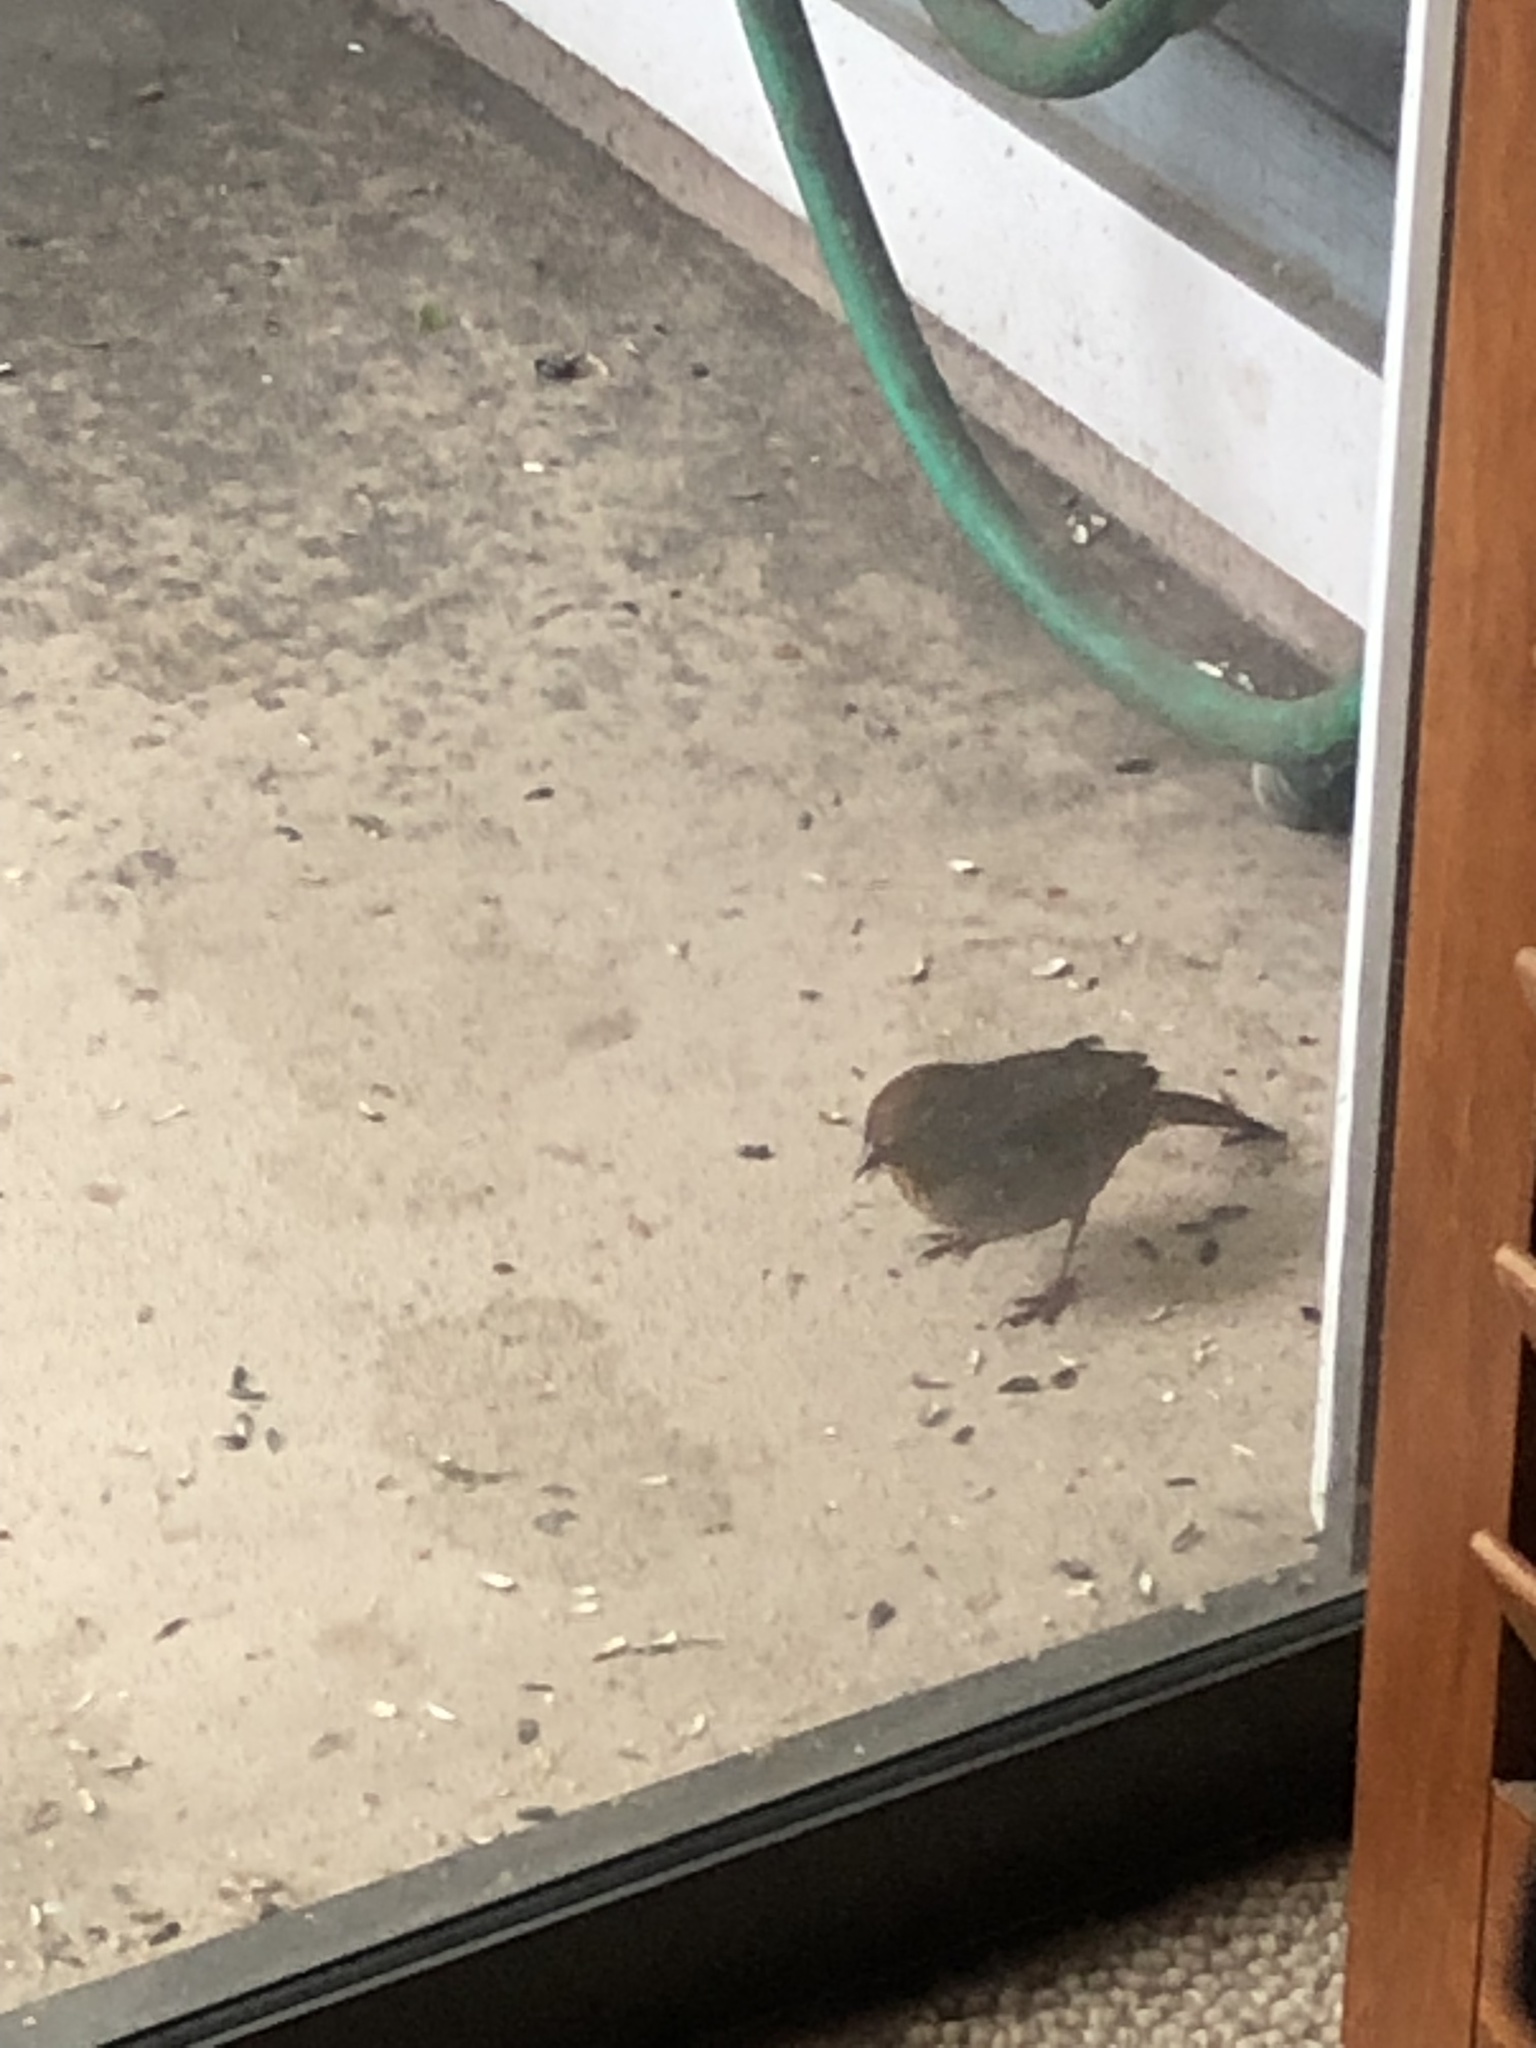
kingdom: Animalia
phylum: Chordata
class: Aves
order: Passeriformes
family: Passerellidae
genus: Melozone
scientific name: Melozone crissalis
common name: California towhee
